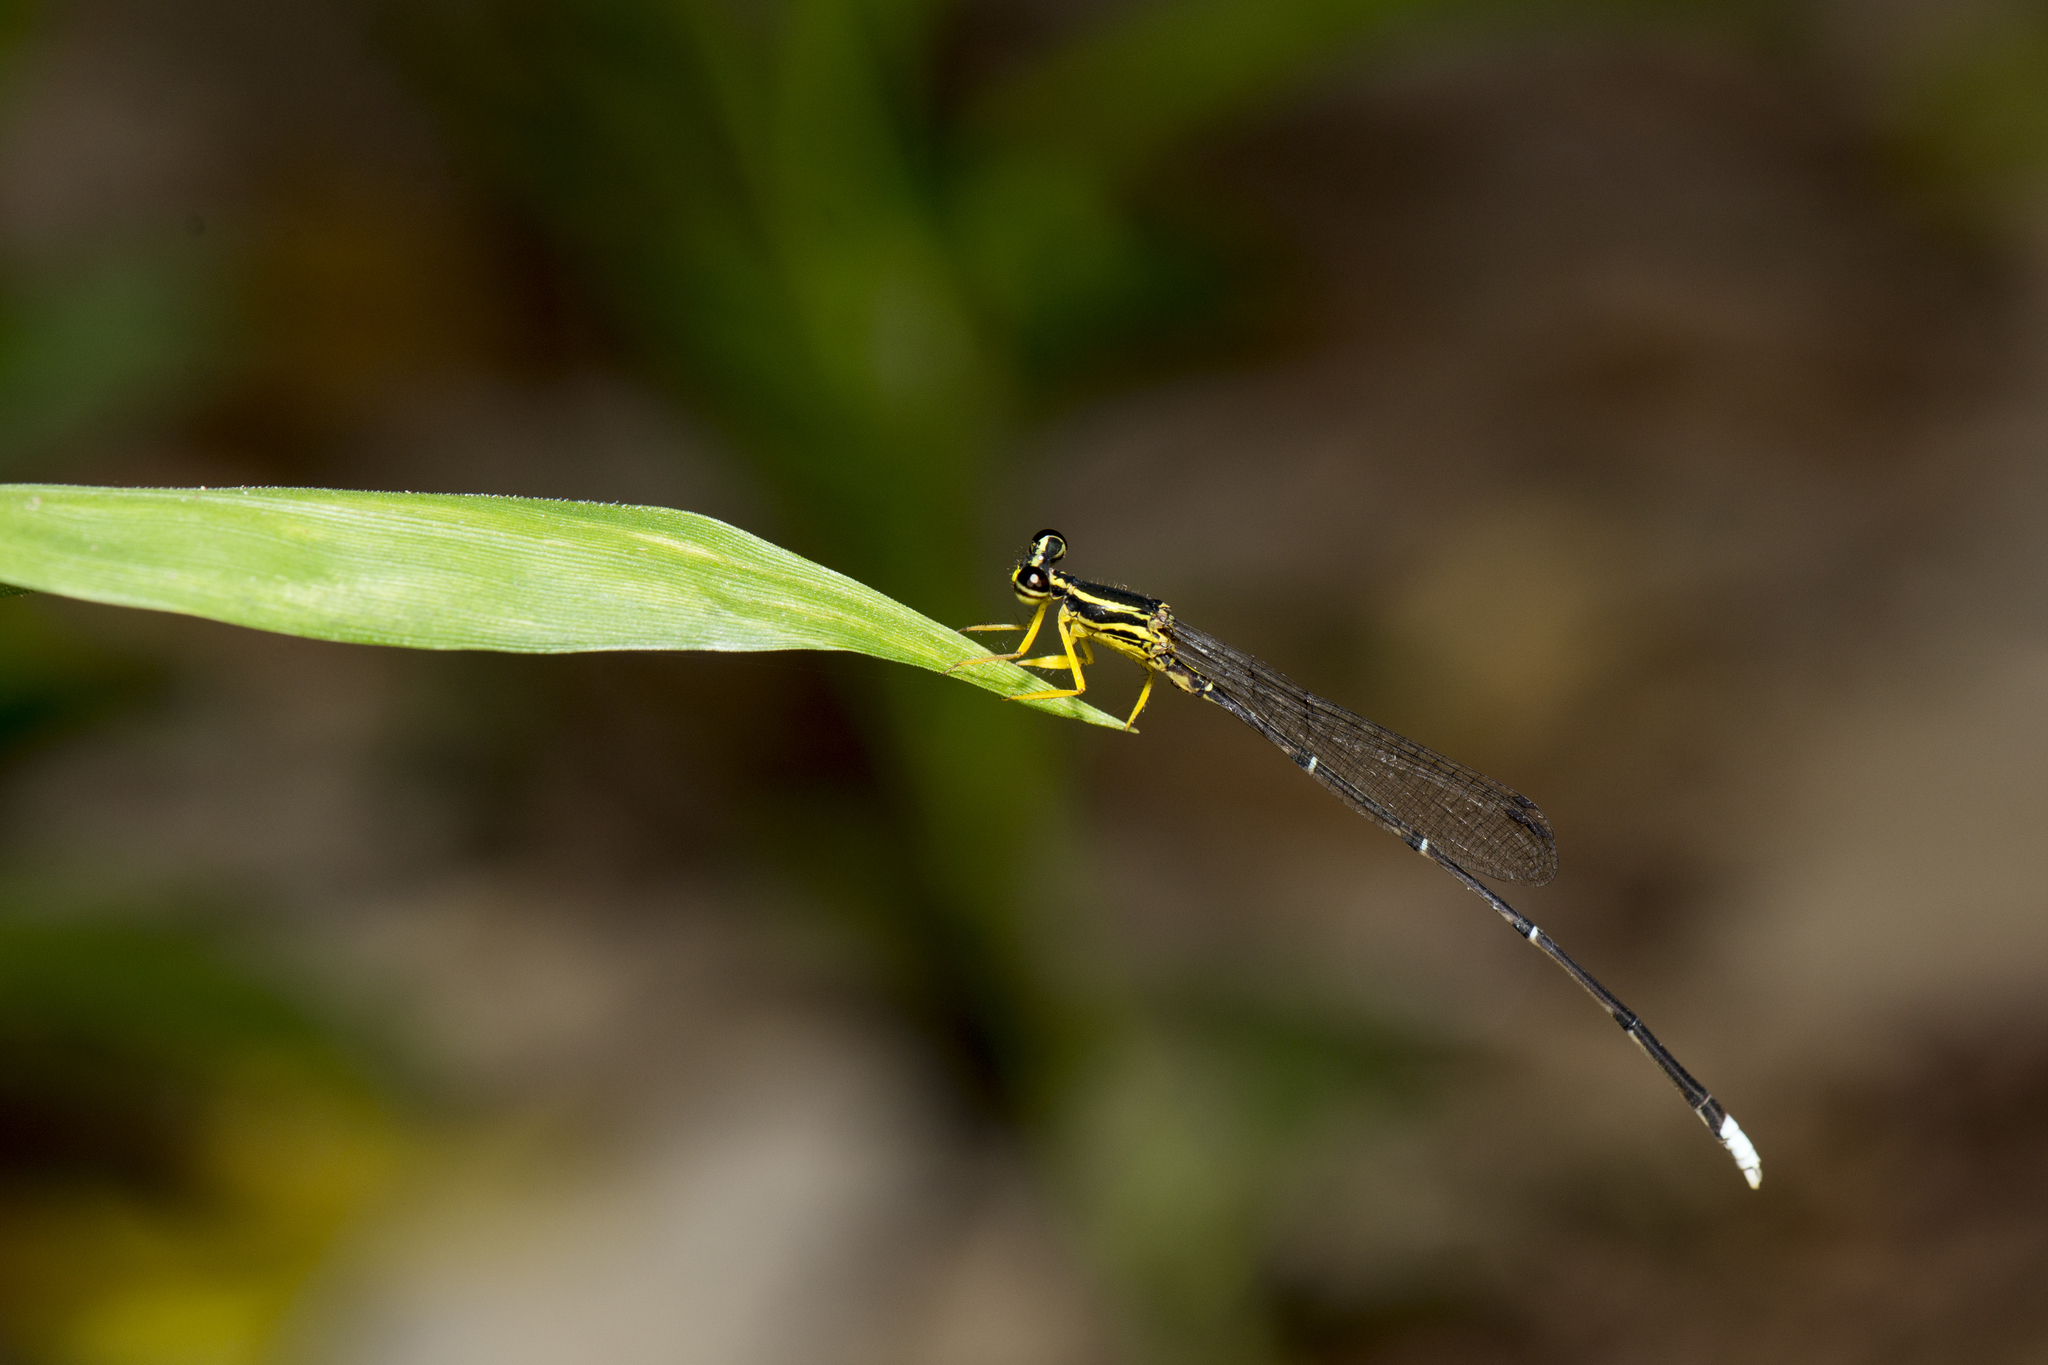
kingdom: Animalia
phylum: Arthropoda
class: Insecta
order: Odonata
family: Platycnemididae
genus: Copera
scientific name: Copera marginipes
